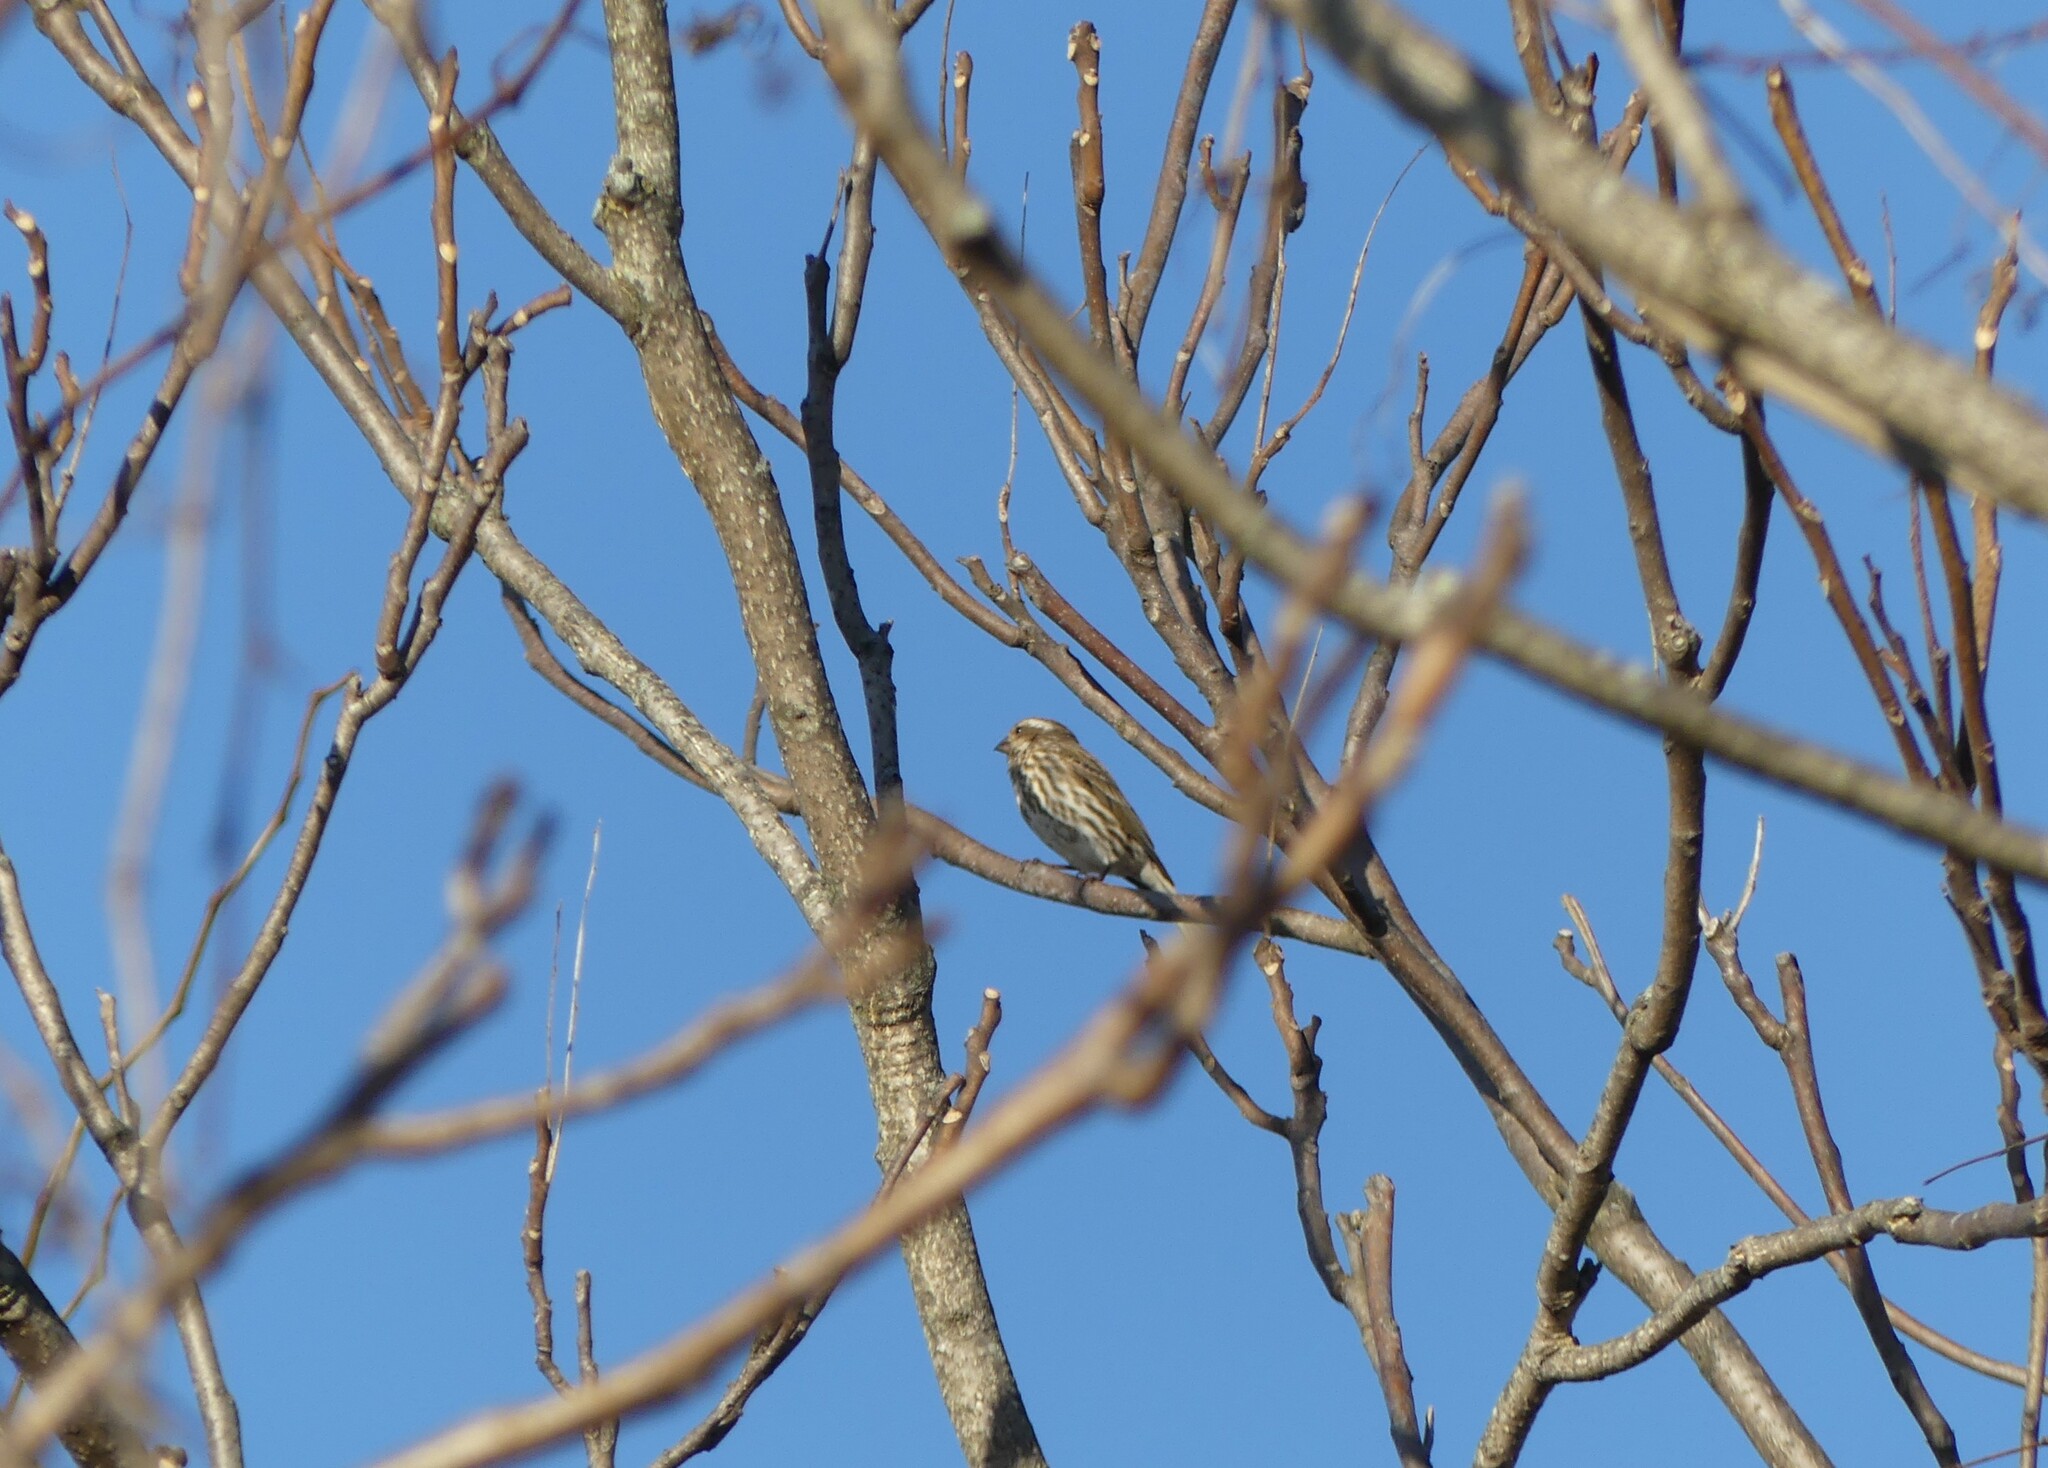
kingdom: Animalia
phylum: Chordata
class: Aves
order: Passeriformes
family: Fringillidae
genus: Haemorhous
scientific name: Haemorhous purpureus
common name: Purple finch
